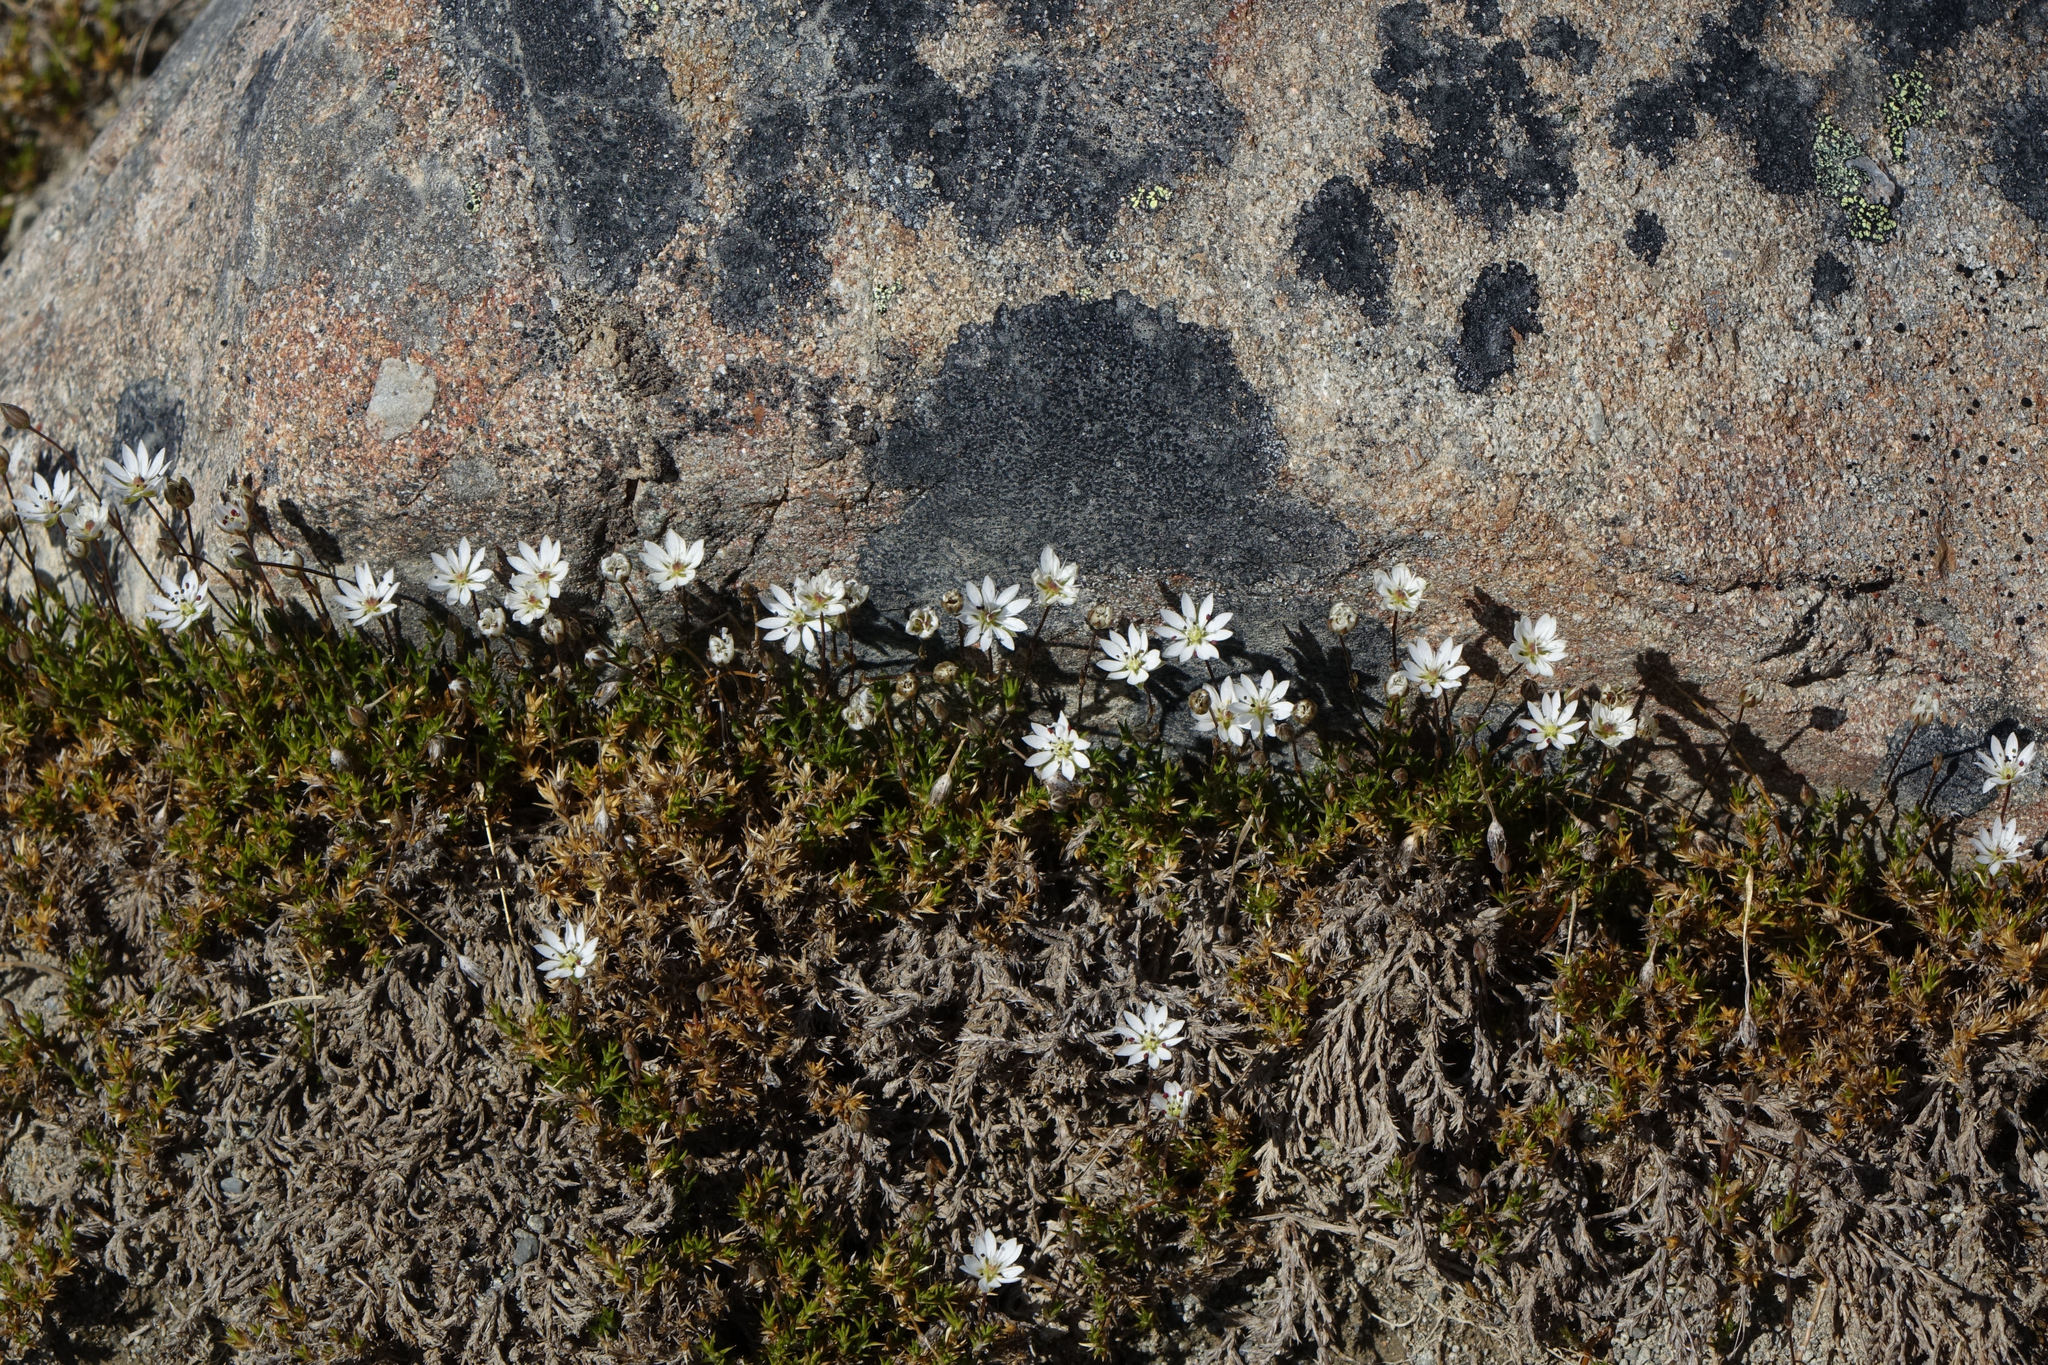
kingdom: Plantae
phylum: Tracheophyta
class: Magnoliopsida
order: Caryophyllales
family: Caryophyllaceae
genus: Stellaria
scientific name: Stellaria gracilenta
